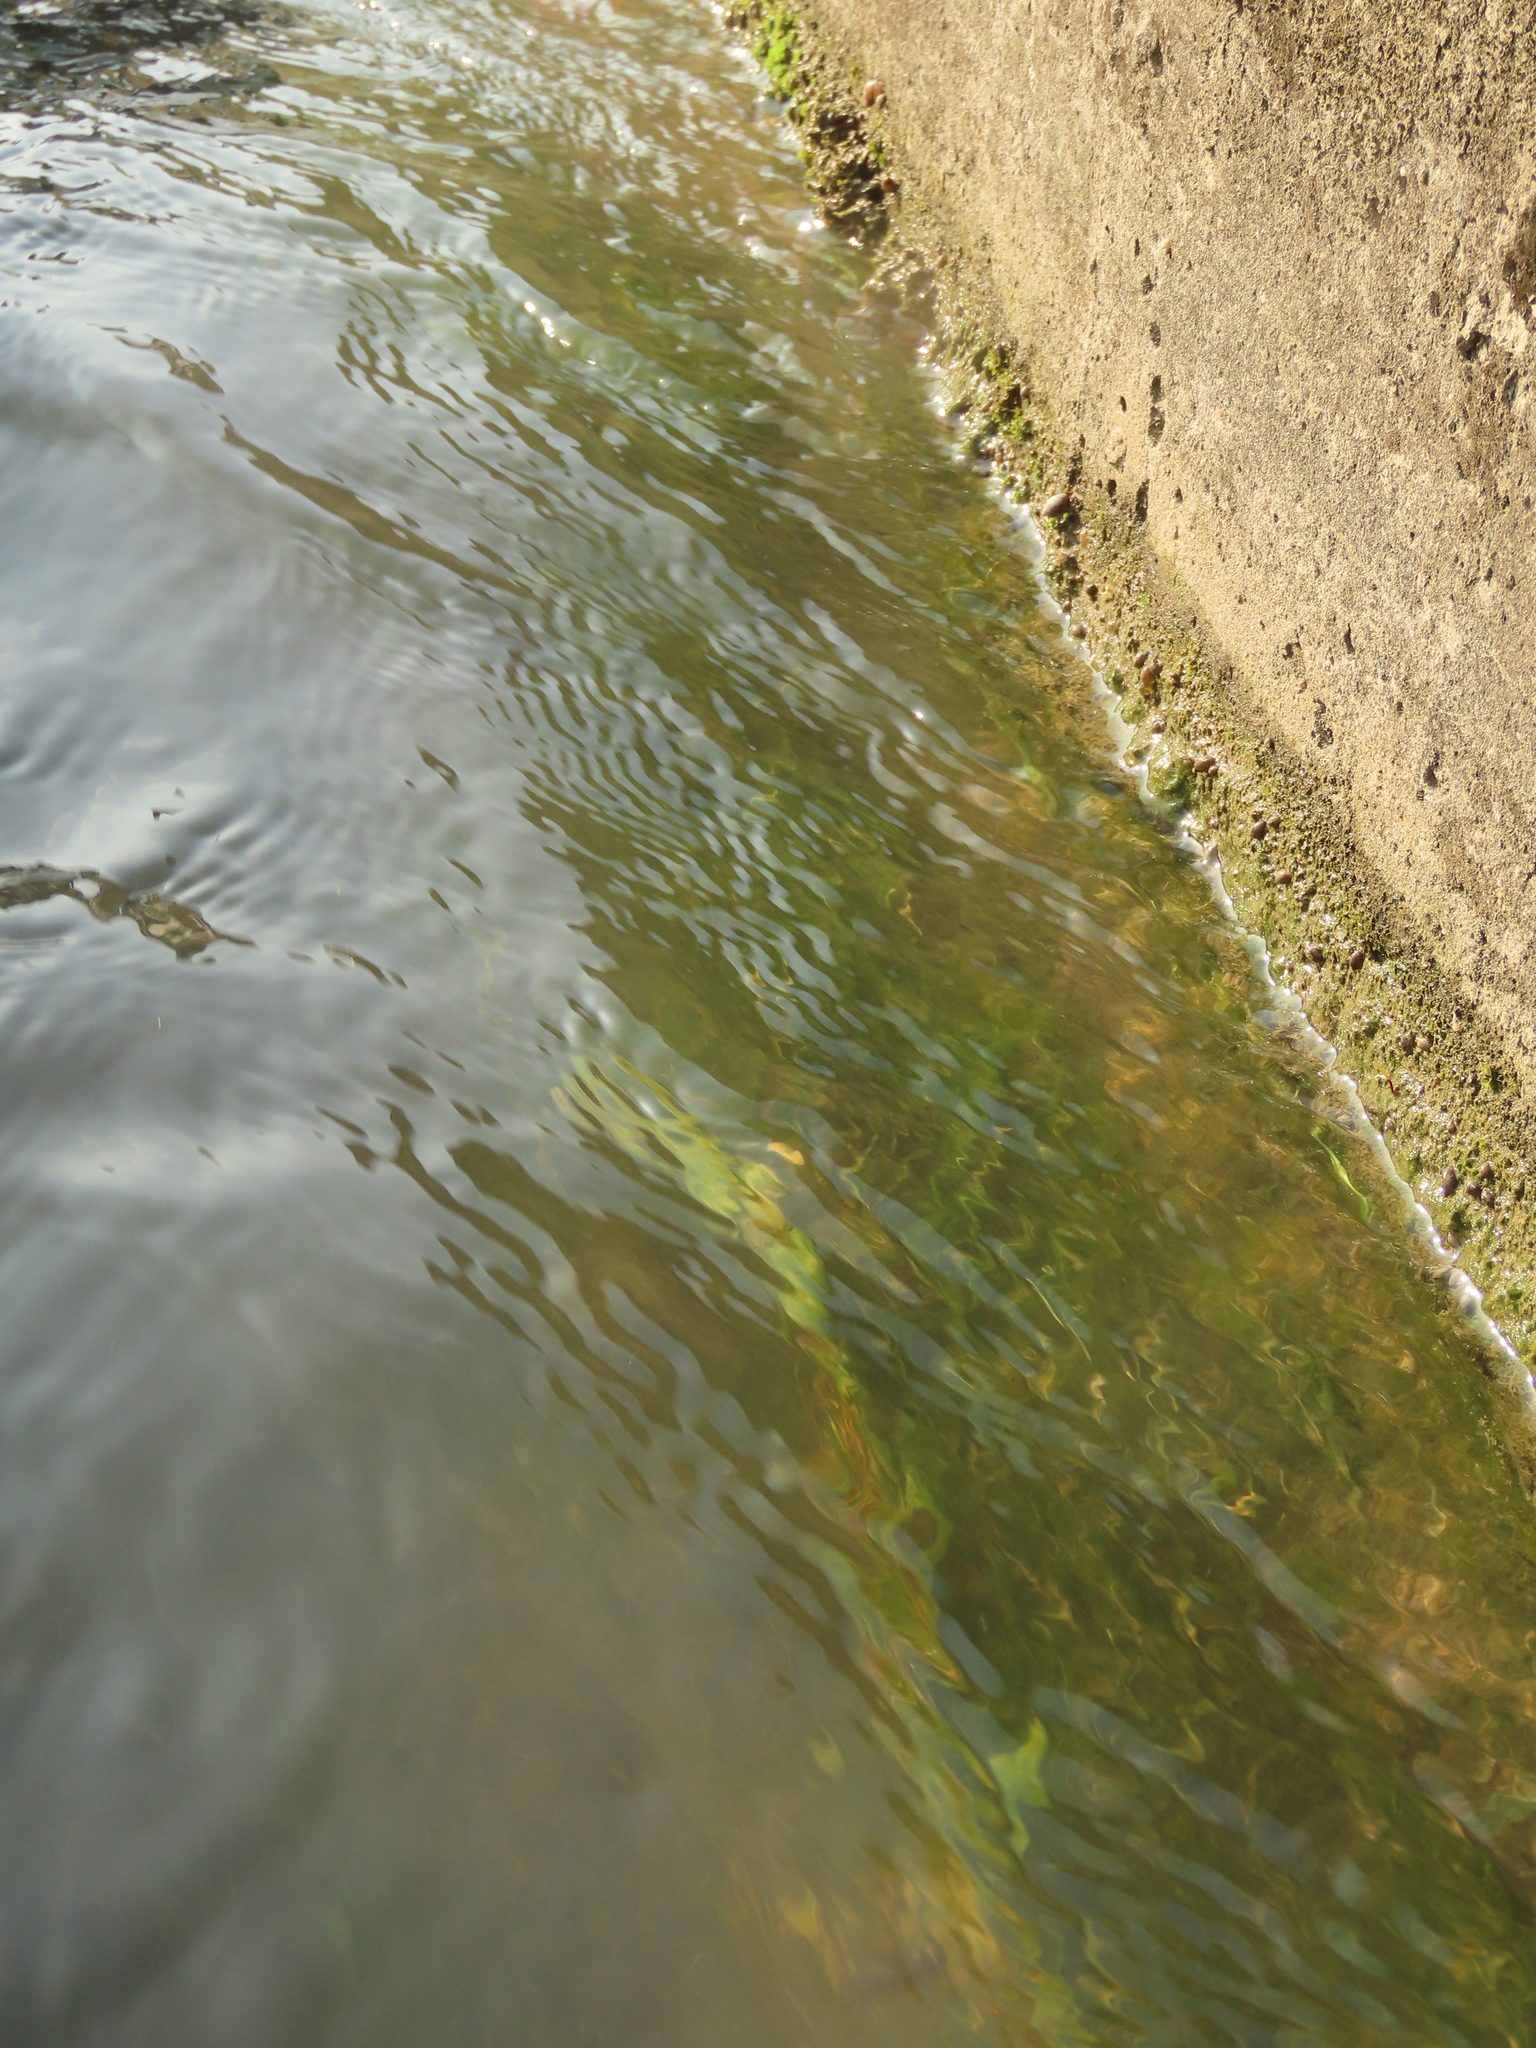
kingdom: Plantae
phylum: Tracheophyta
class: Liliopsida
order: Alismatales
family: Potamogetonaceae
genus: Potamogeton
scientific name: Potamogeton crispus
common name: Curled pondweed
